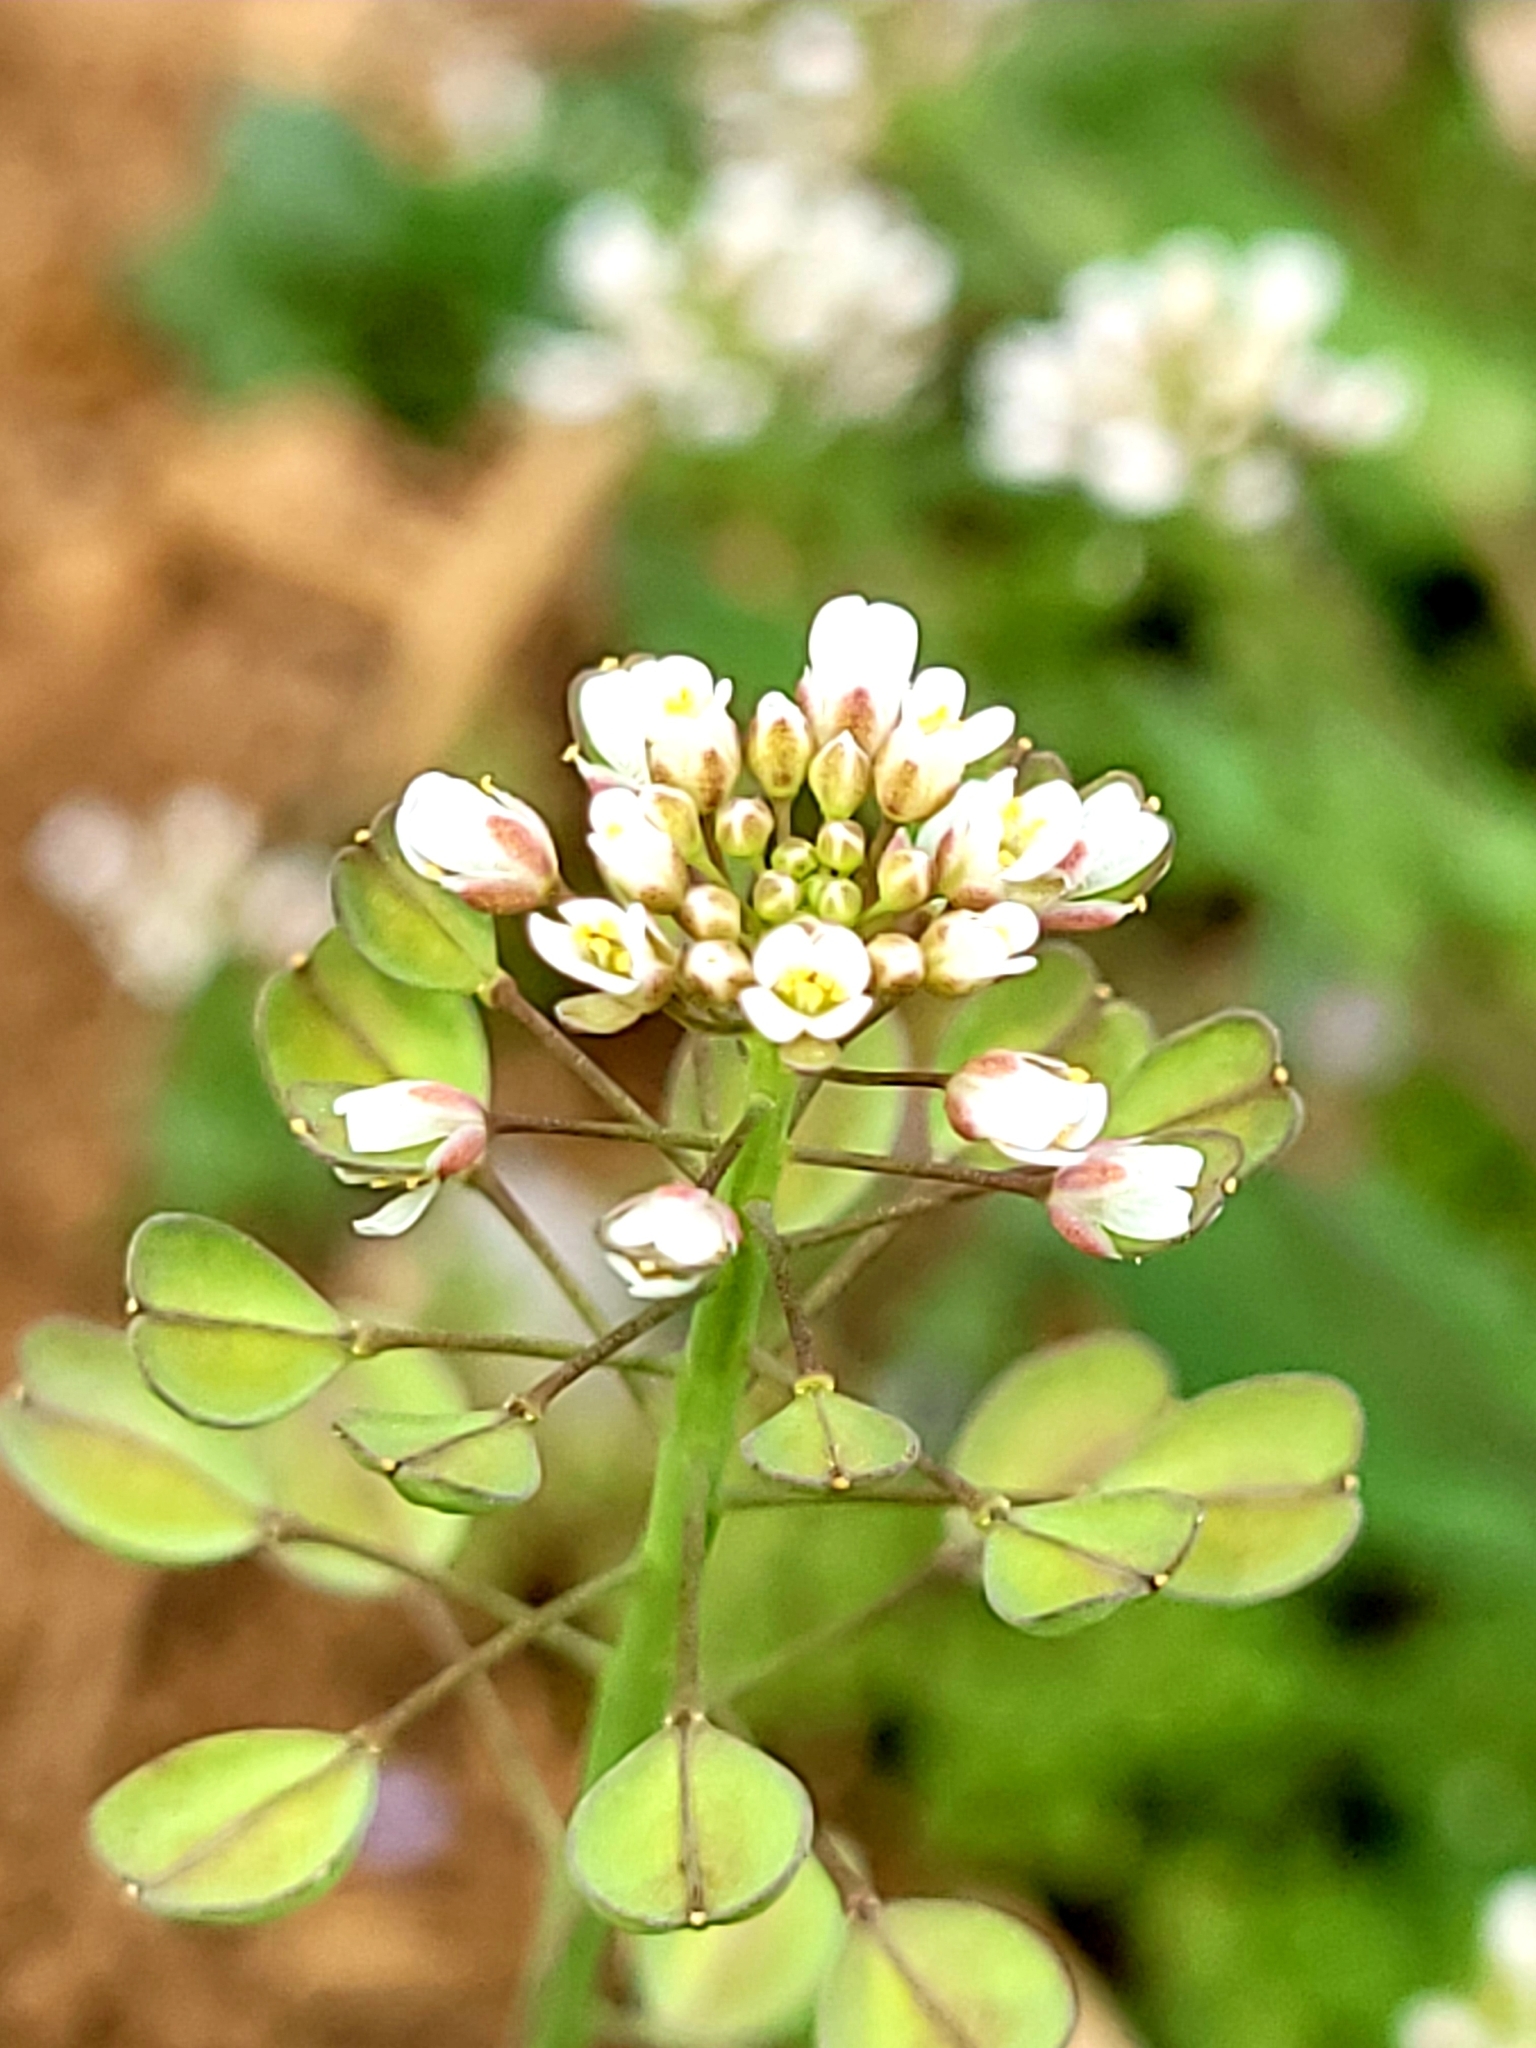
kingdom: Plantae
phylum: Tracheophyta
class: Magnoliopsida
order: Brassicales
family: Brassicaceae
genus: Noccaea
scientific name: Noccaea perfoliata
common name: Perfoliate pennycress
